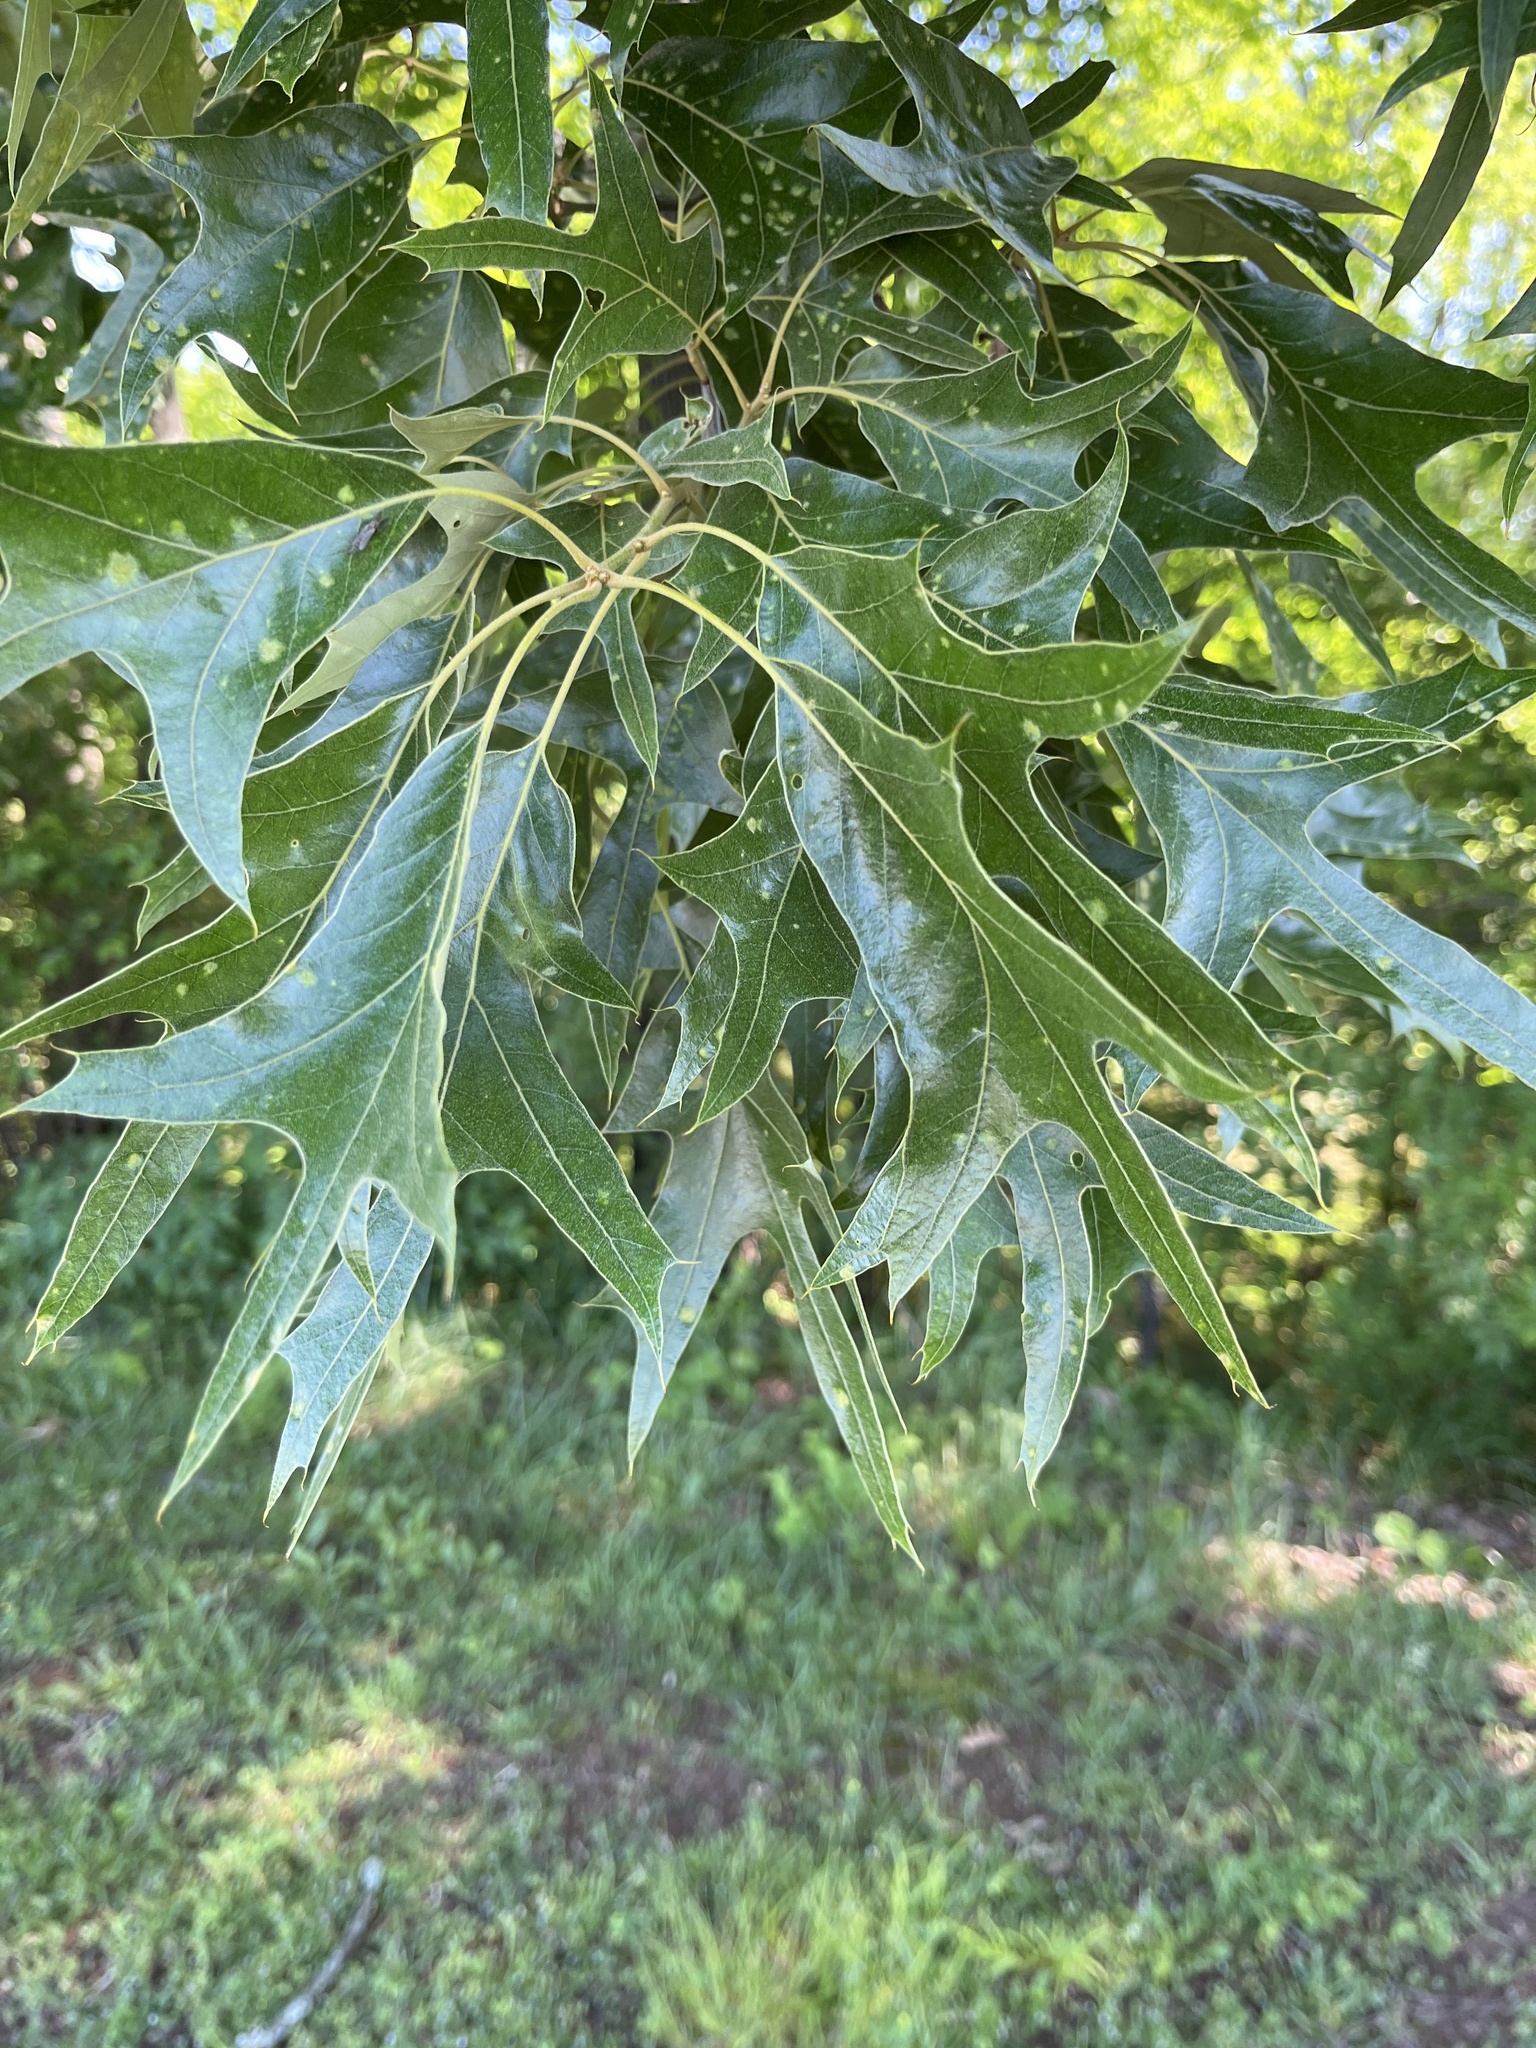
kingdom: Plantae
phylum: Tracheophyta
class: Magnoliopsida
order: Fagales
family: Fagaceae
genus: Quercus
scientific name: Quercus falcata
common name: Southern red oak
